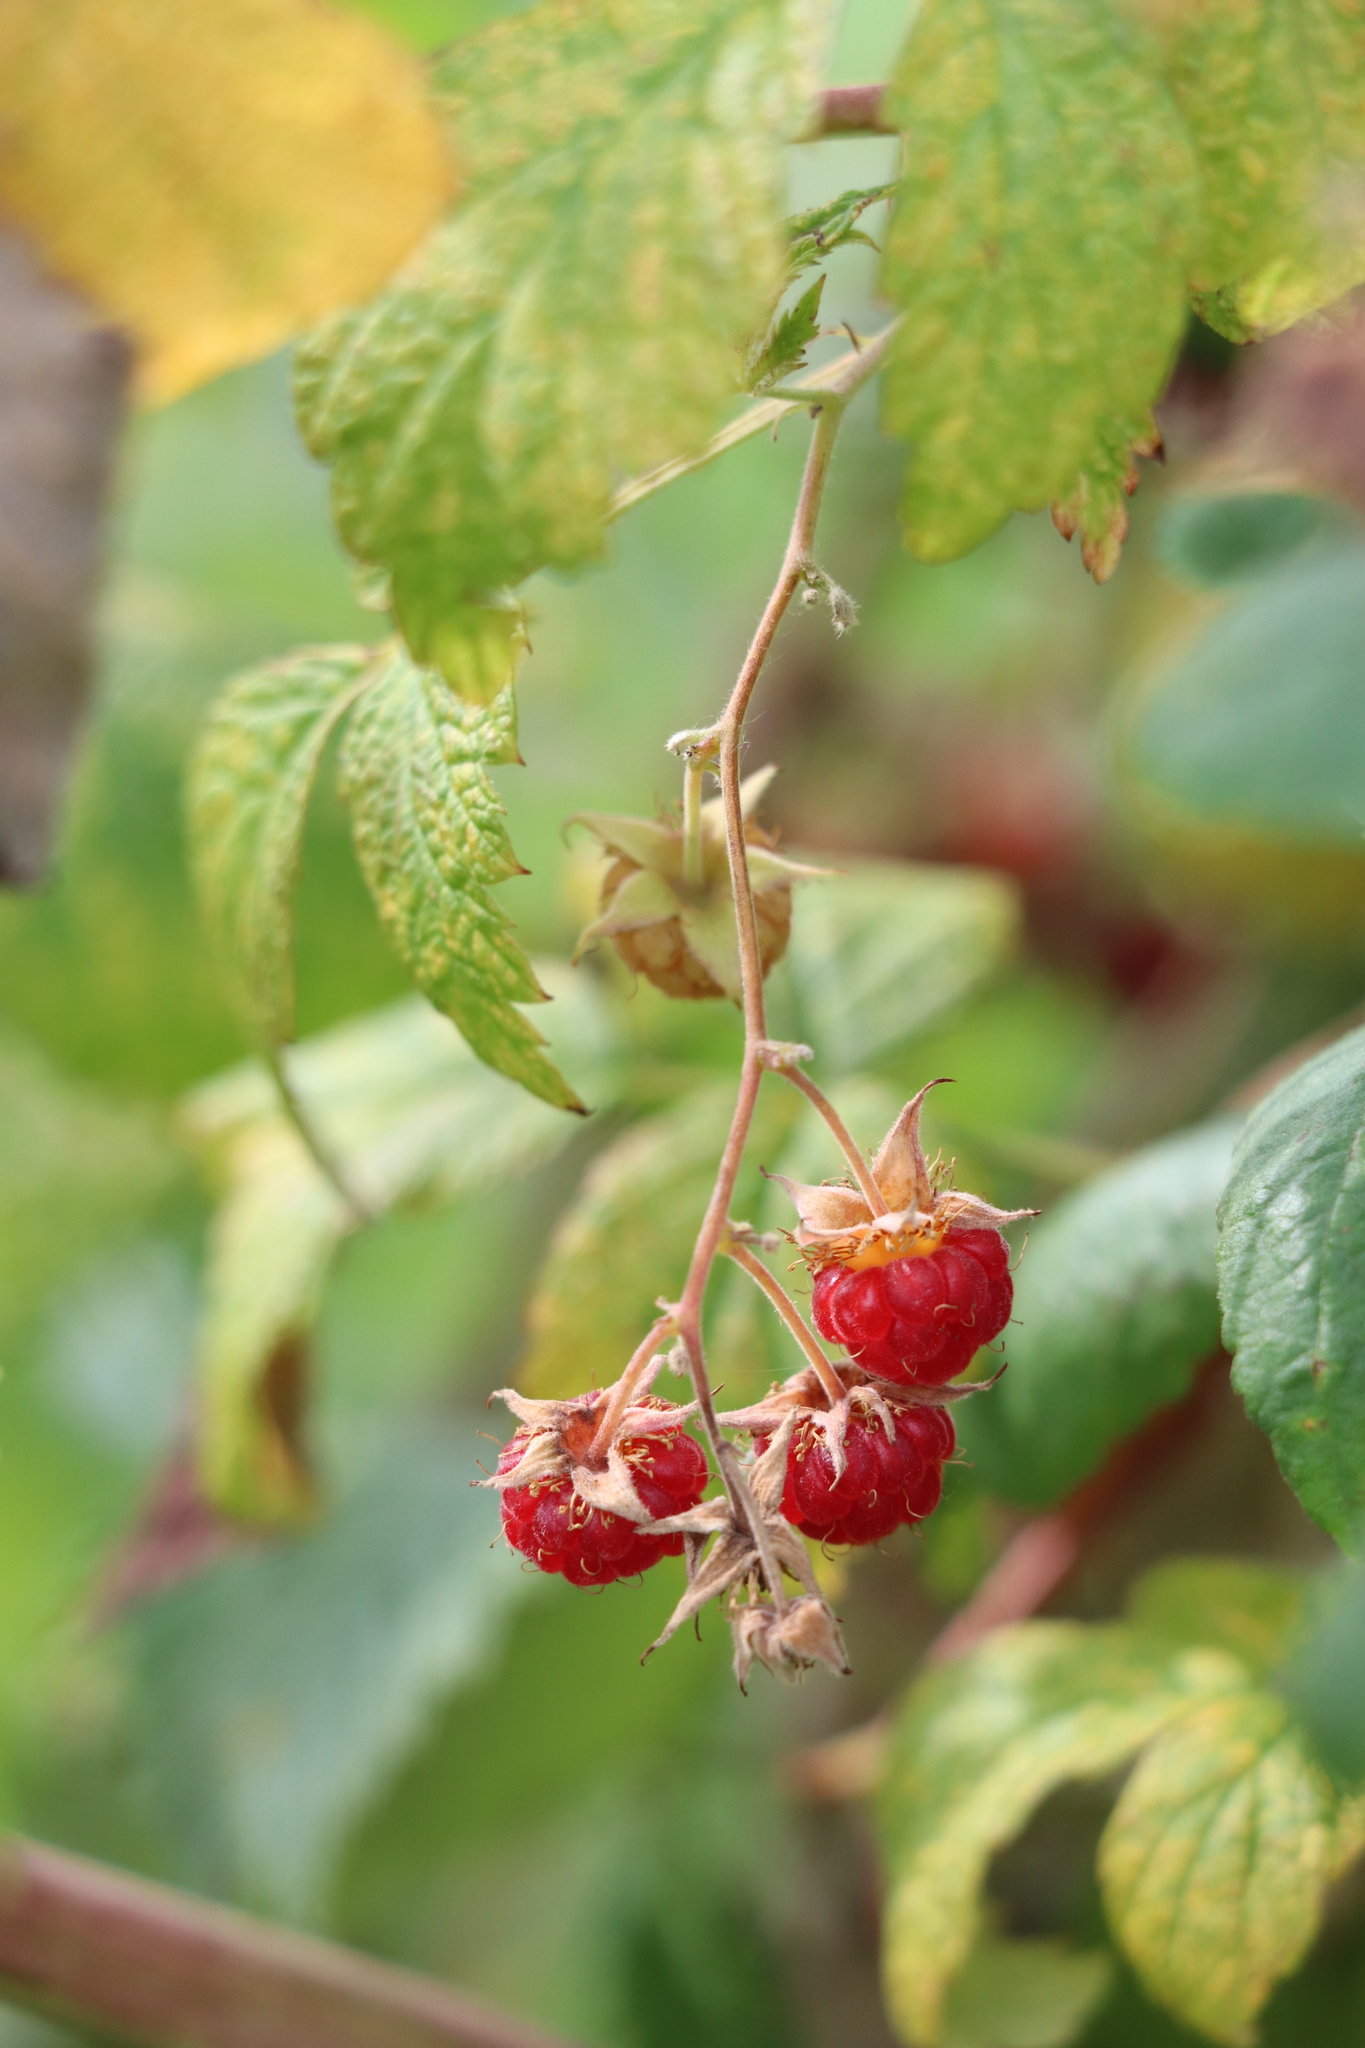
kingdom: Plantae
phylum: Tracheophyta
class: Magnoliopsida
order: Rosales
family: Rosaceae
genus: Rubus
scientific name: Rubus sachalinensis
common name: Red raspberry
